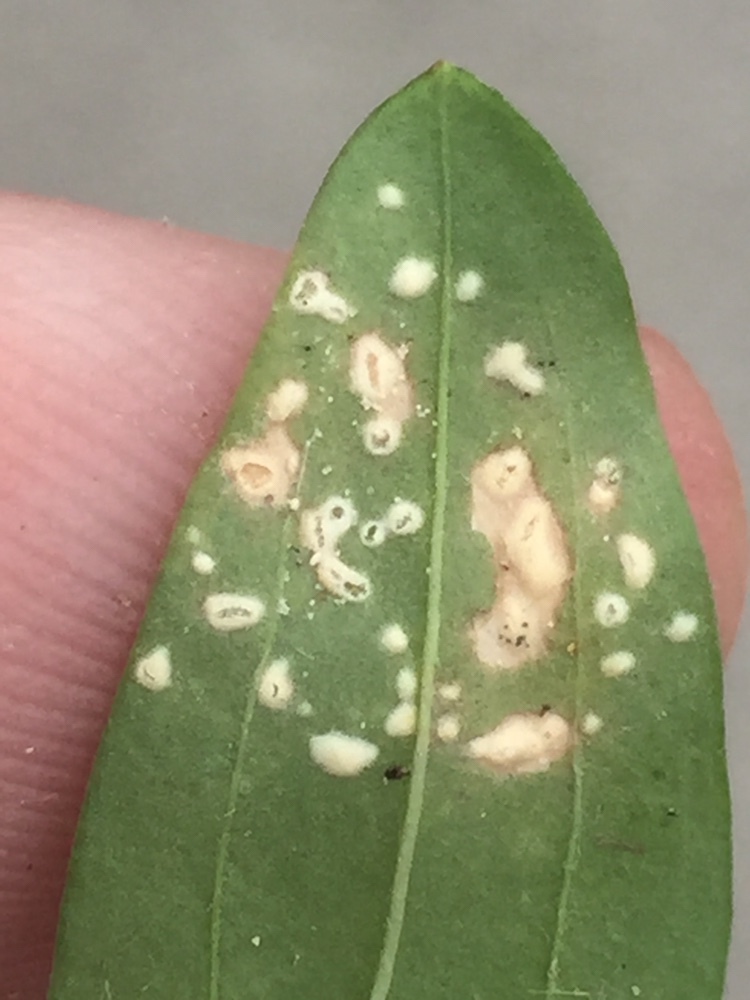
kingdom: Chromista
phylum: Oomycota
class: Peronosporea
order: Albuginales
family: Albuginaceae
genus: Pustula
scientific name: Pustula centaurii
